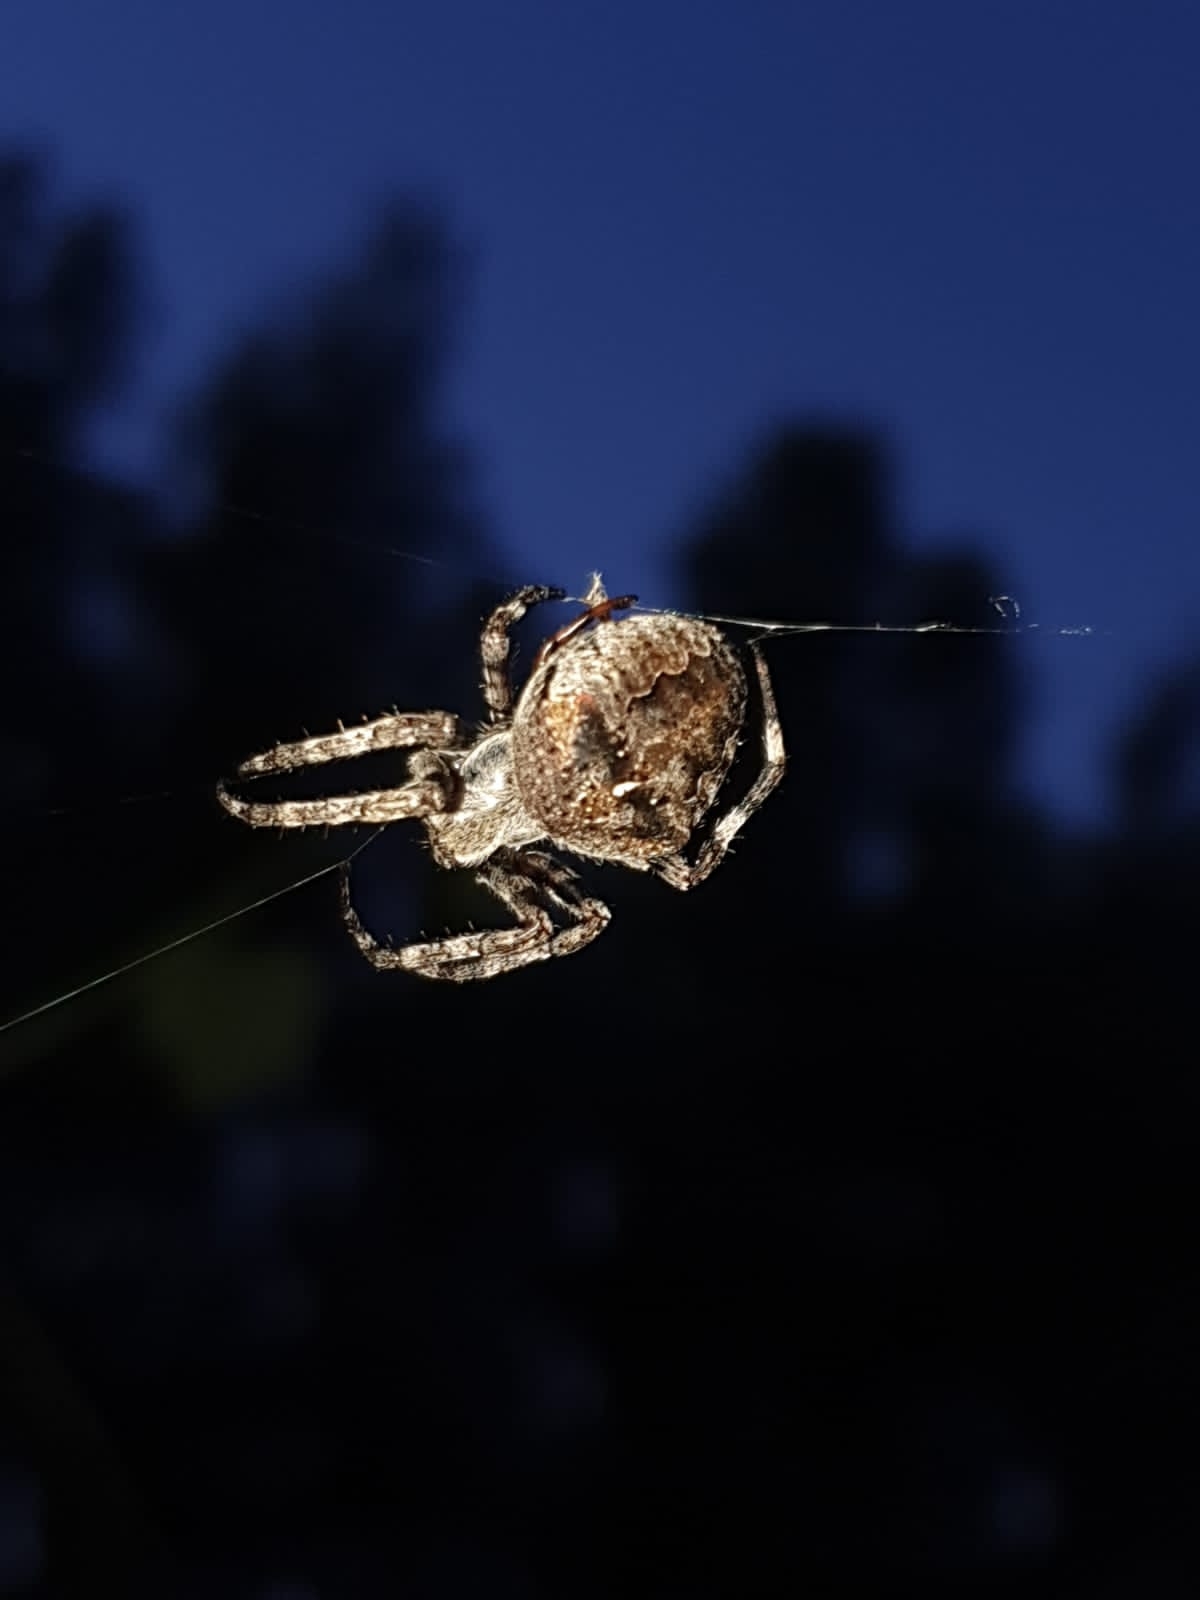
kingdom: Animalia
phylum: Arthropoda
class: Arachnida
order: Araneae
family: Araneidae
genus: Araneus
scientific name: Araneus angulatus
